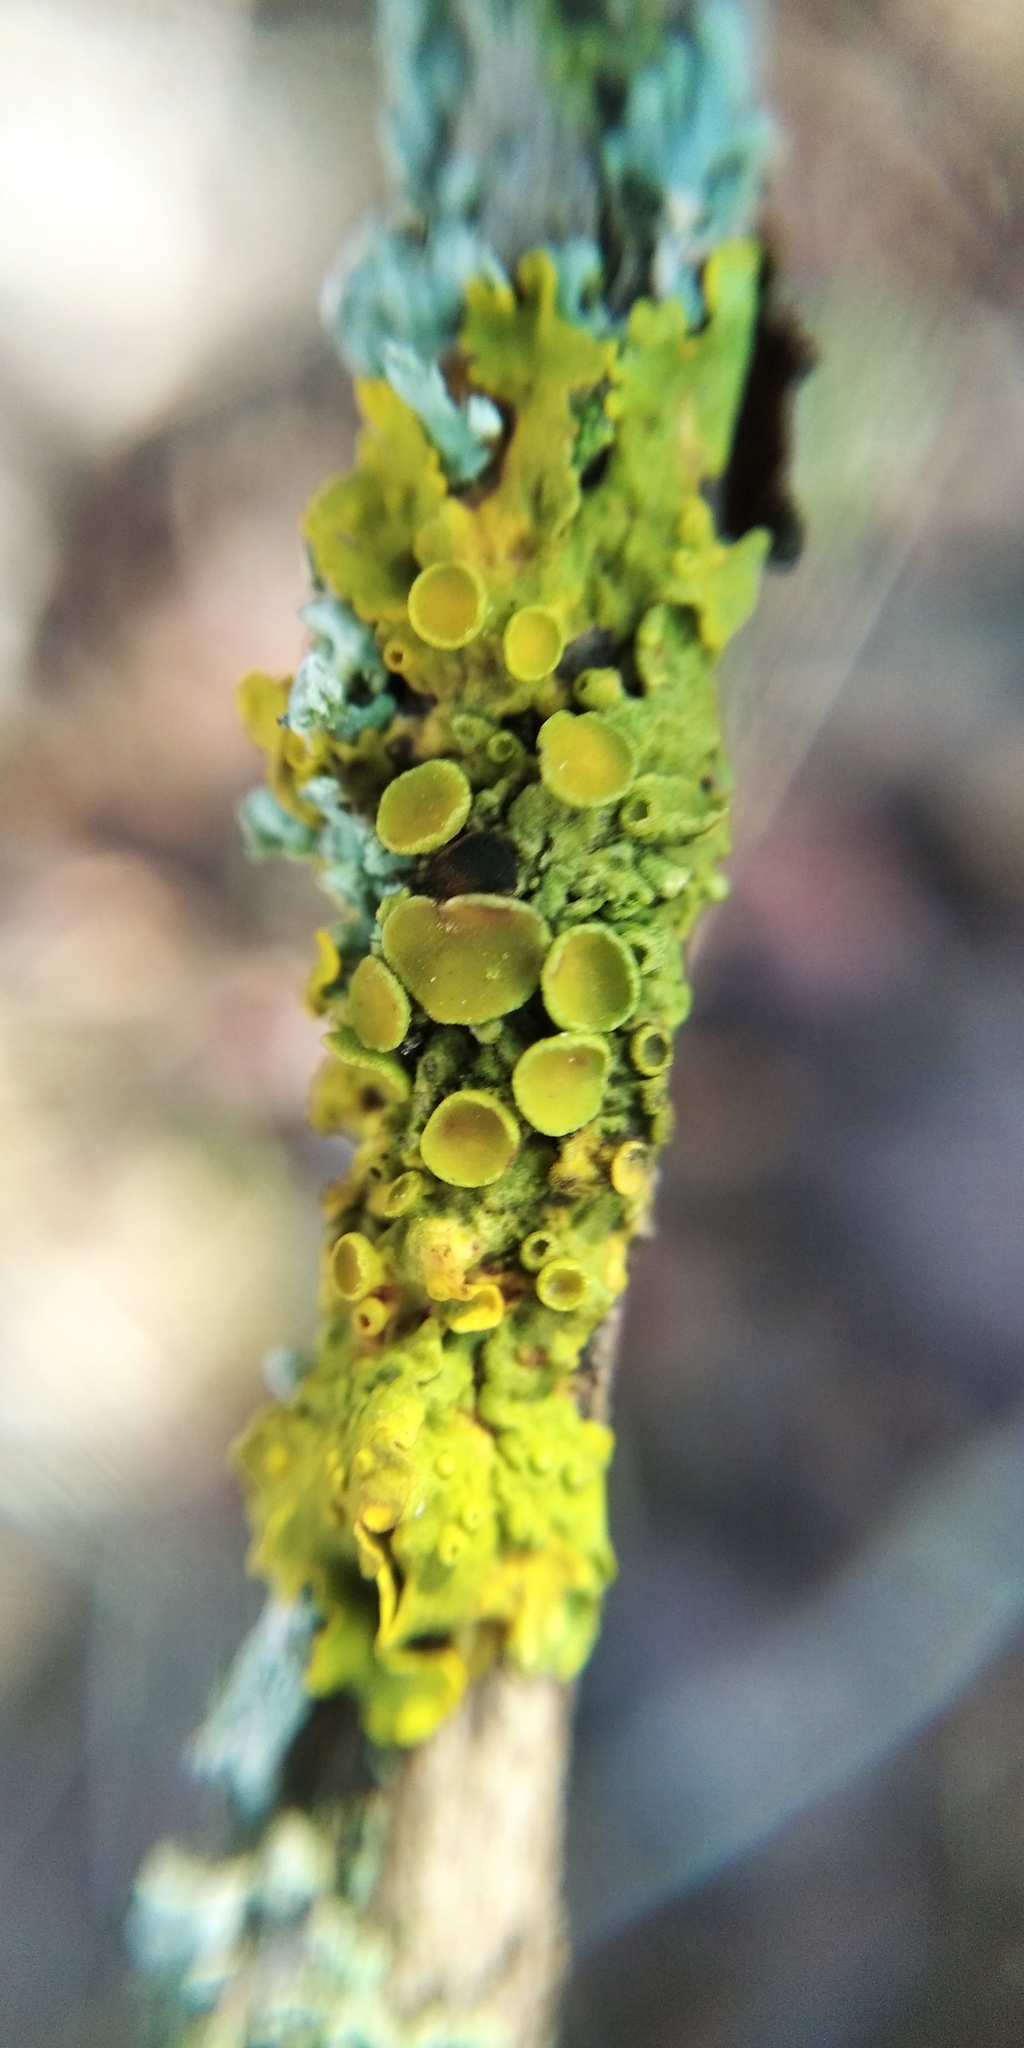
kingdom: Fungi
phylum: Ascomycota
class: Lecanoromycetes
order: Teloschistales
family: Teloschistaceae
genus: Xanthoria
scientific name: Xanthoria parietina
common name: Common orange lichen
